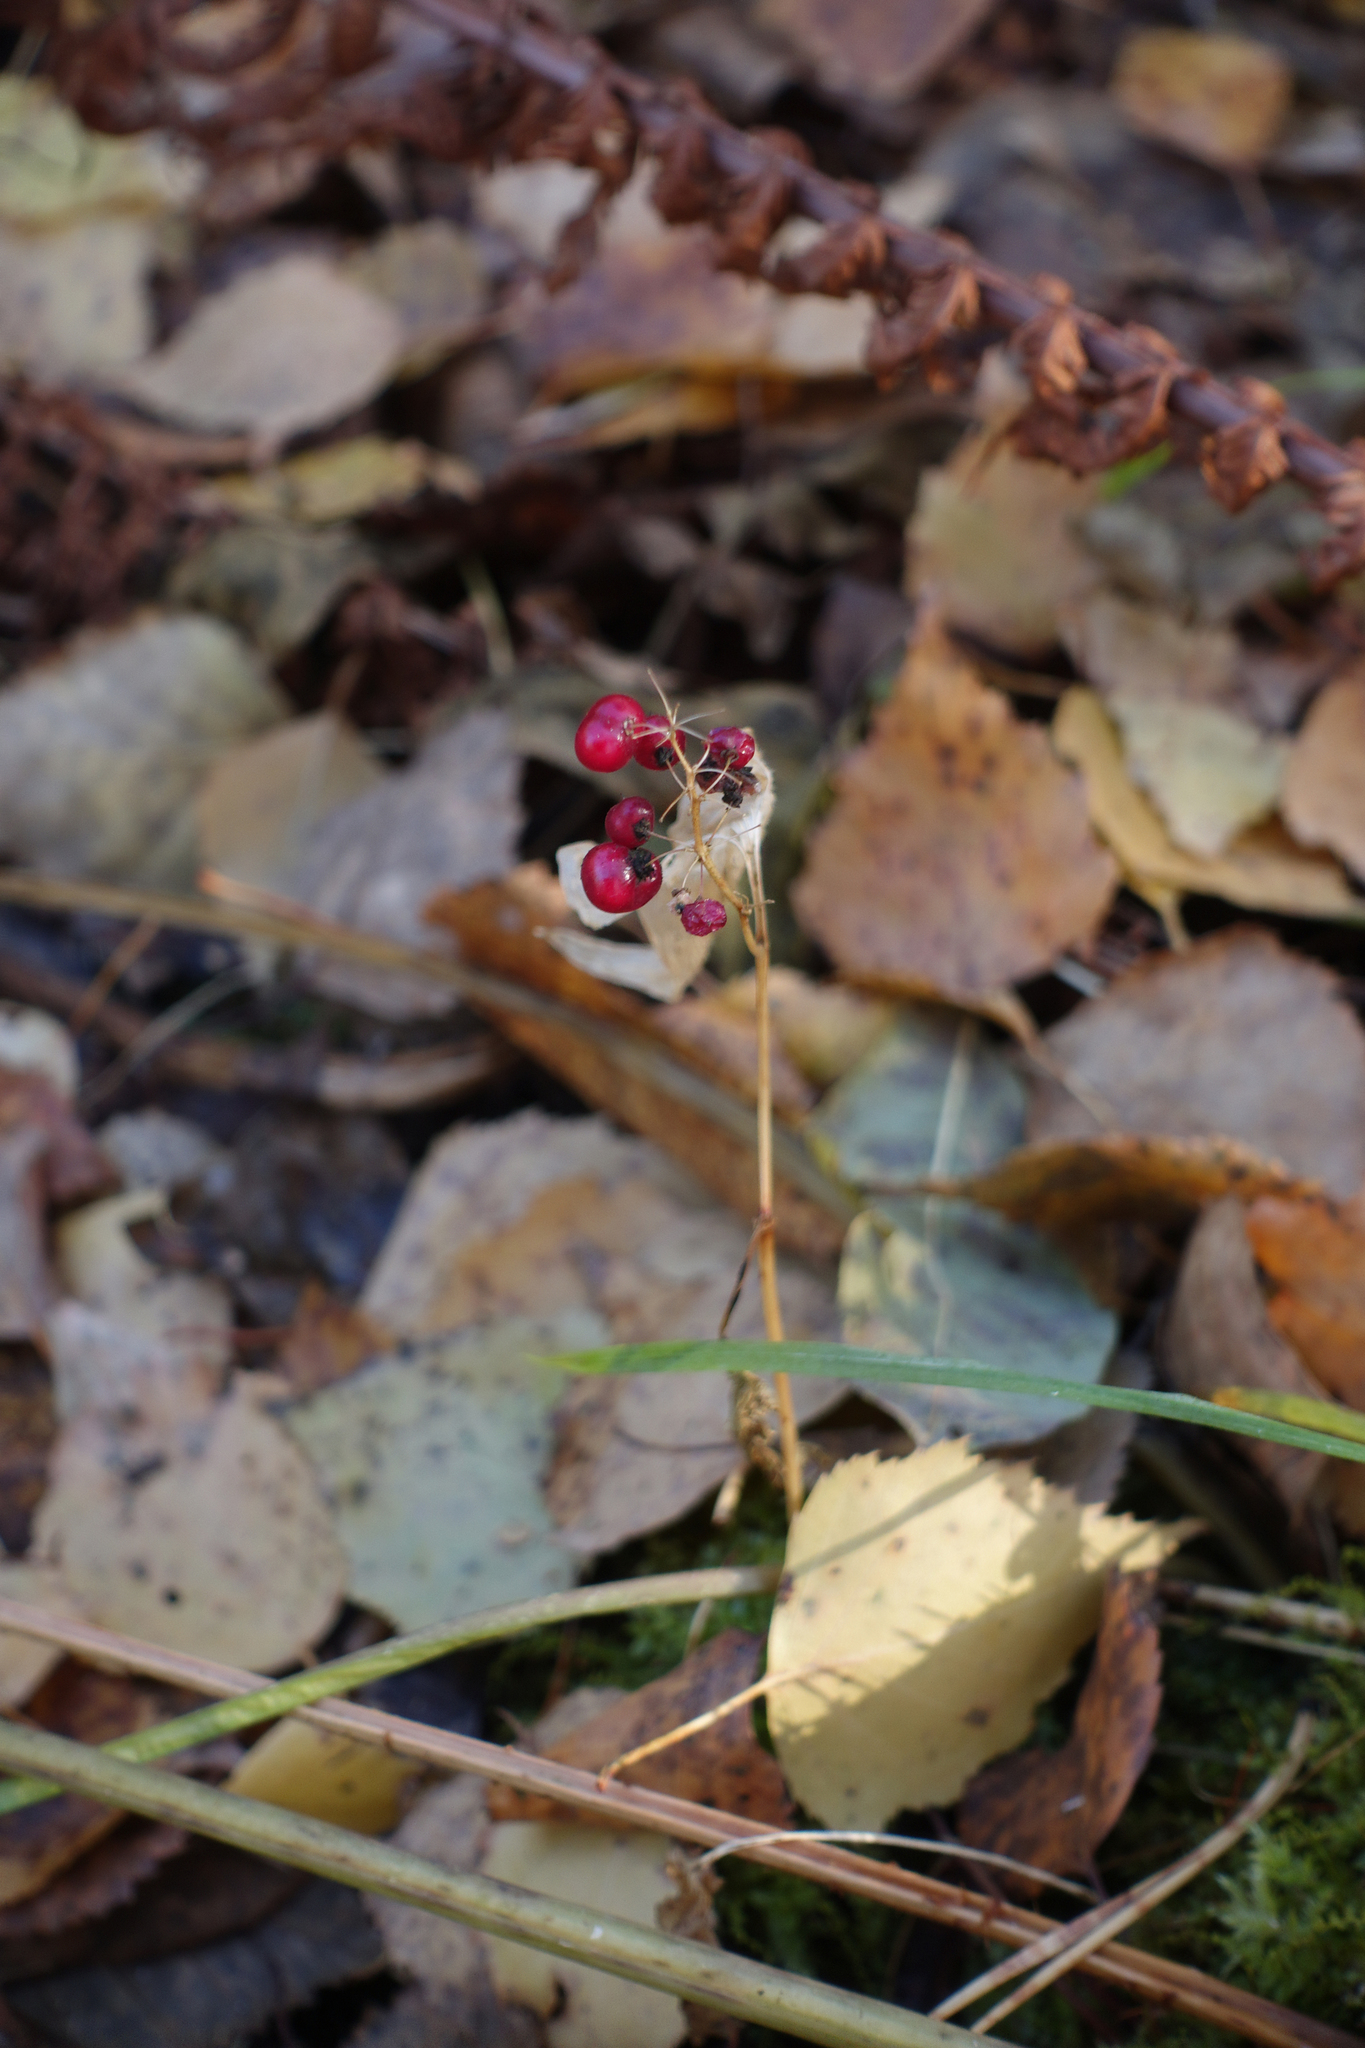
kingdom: Plantae
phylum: Tracheophyta
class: Liliopsida
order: Asparagales
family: Asparagaceae
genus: Maianthemum
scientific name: Maianthemum bifolium
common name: May lily
